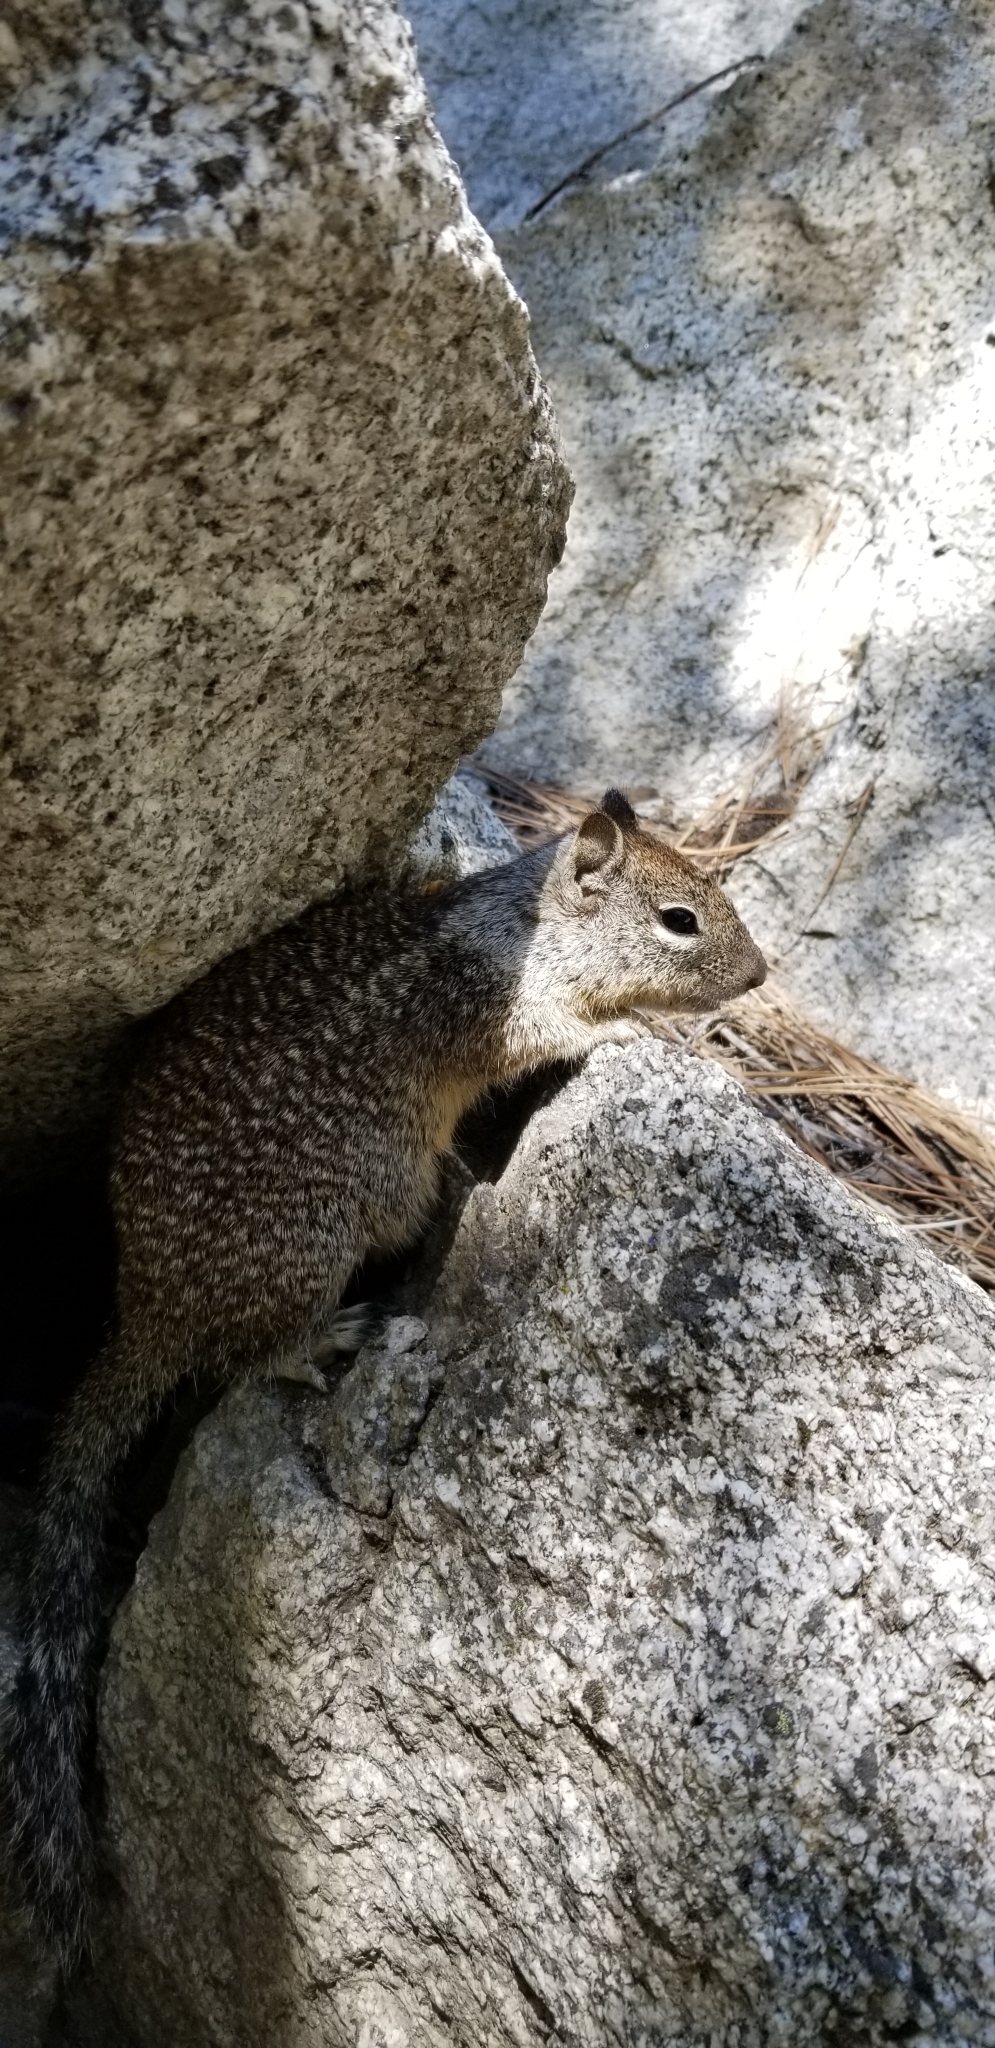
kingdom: Animalia
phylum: Chordata
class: Mammalia
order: Rodentia
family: Sciuridae
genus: Otospermophilus
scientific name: Otospermophilus beecheyi
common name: California ground squirrel
